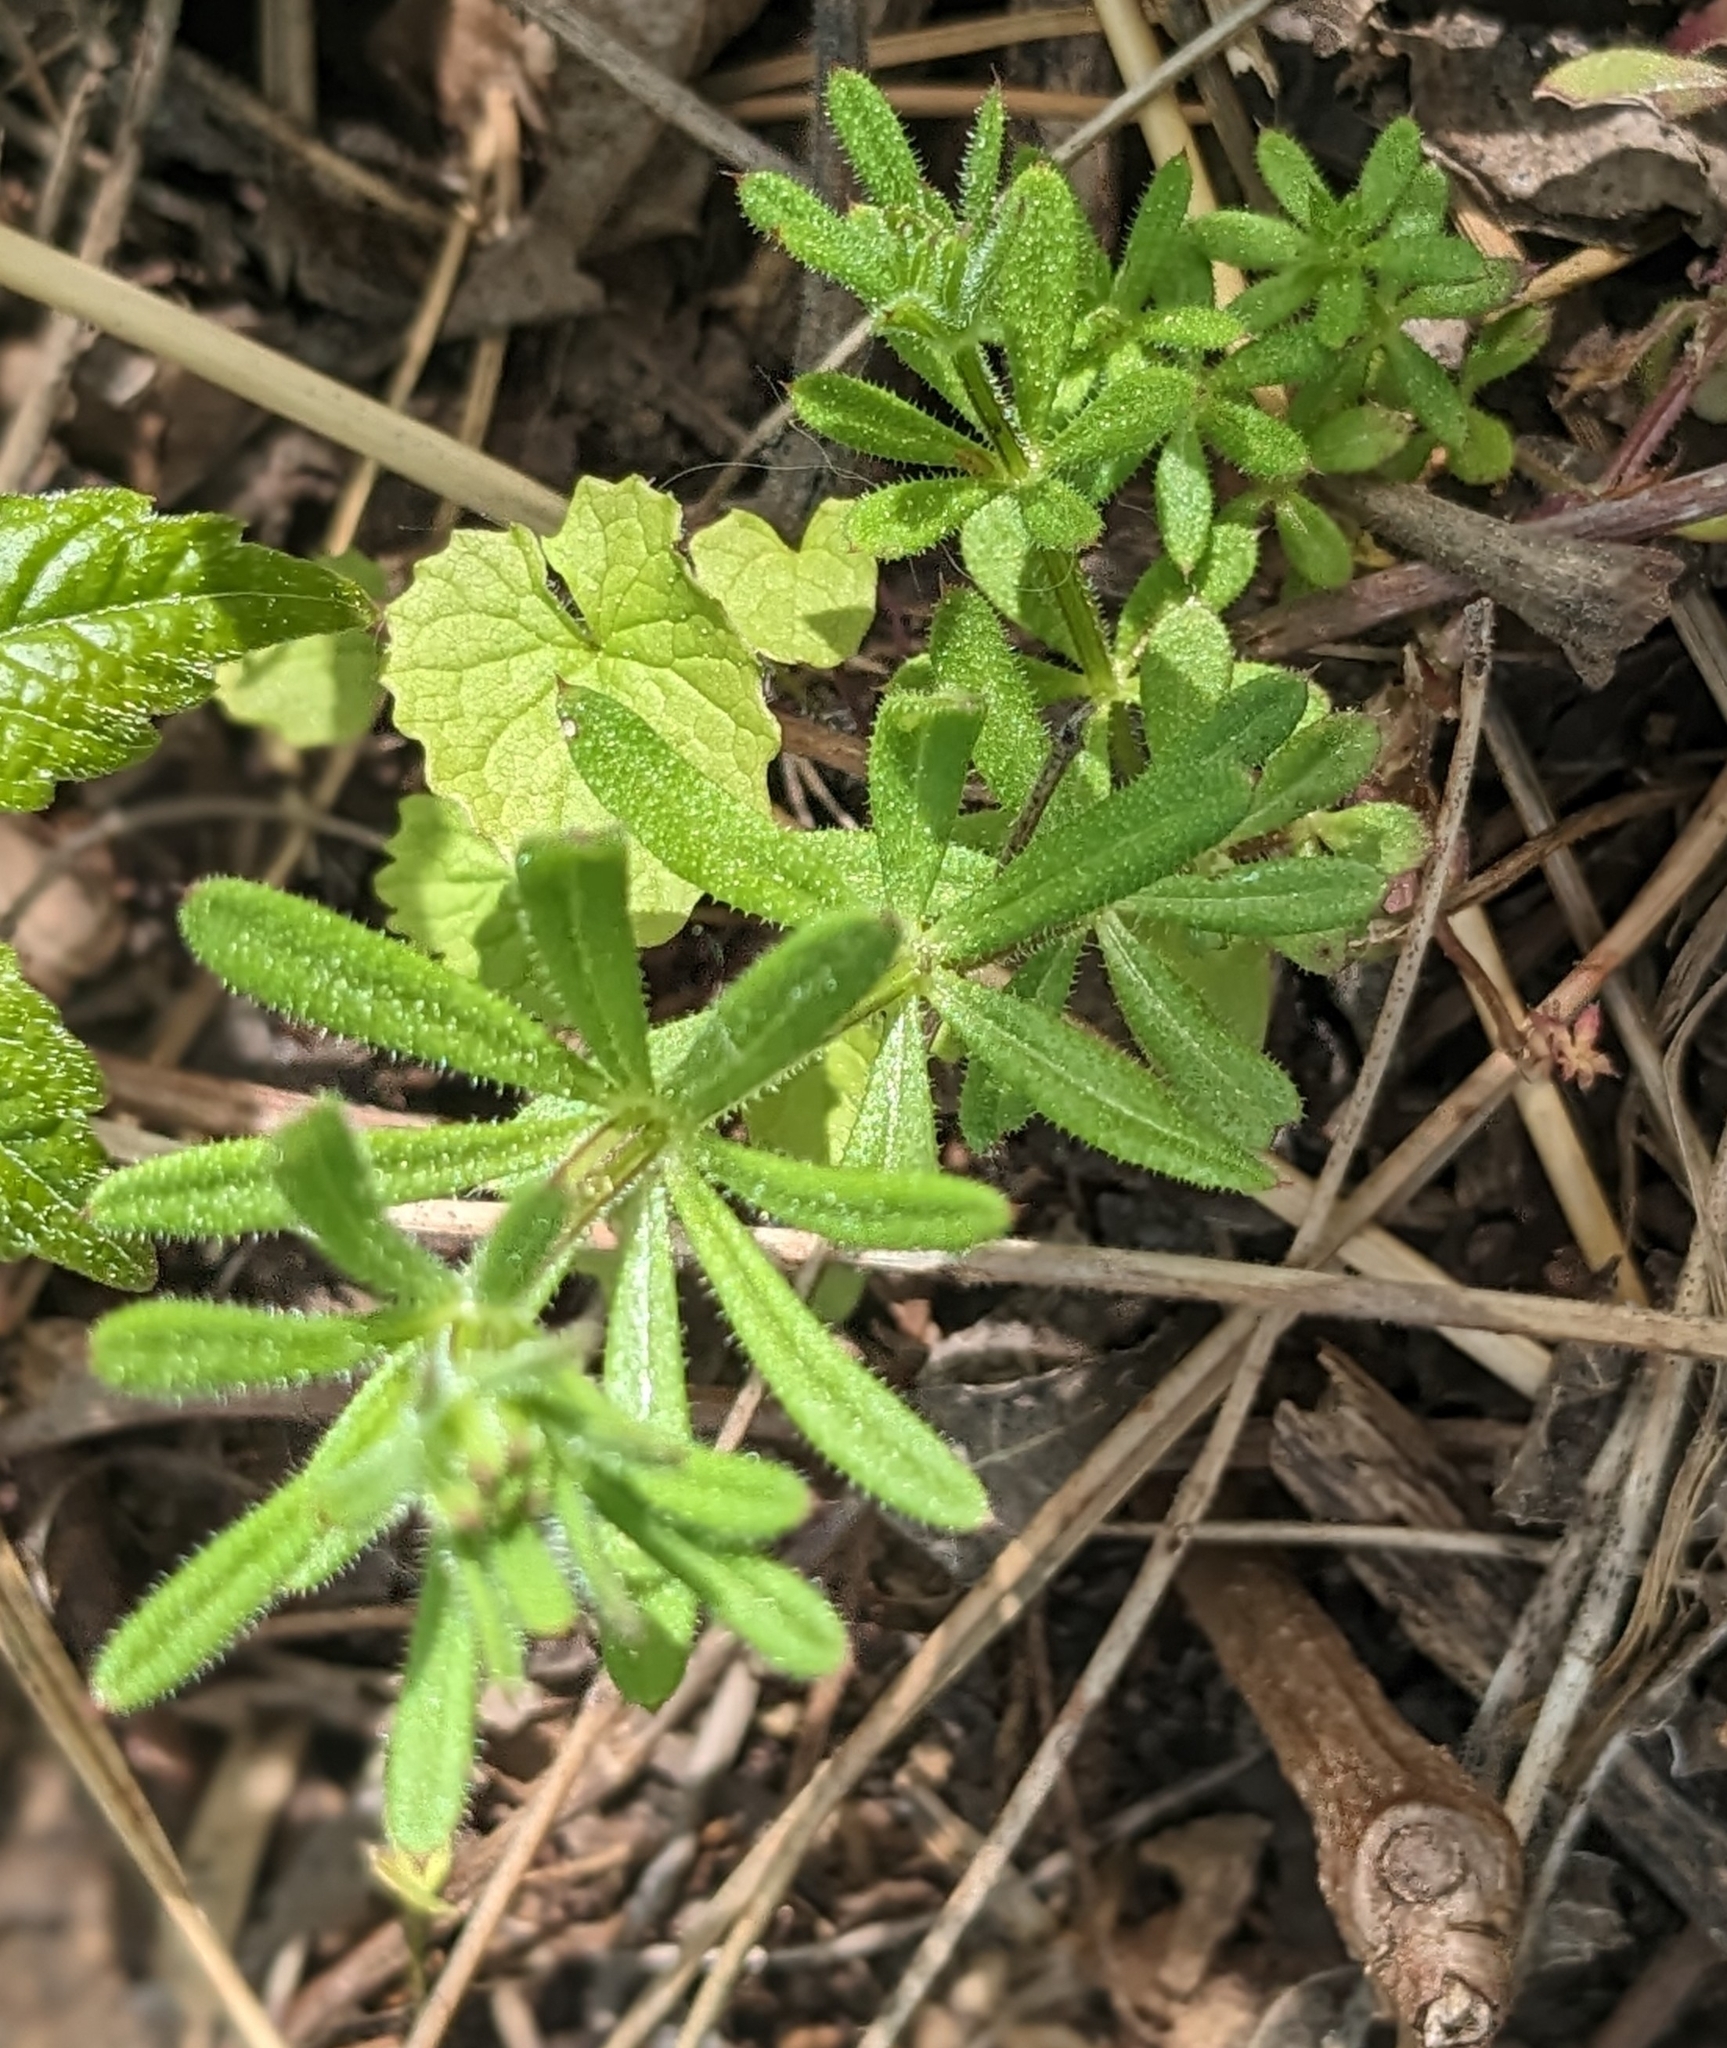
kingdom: Plantae
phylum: Tracheophyta
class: Magnoliopsida
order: Gentianales
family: Rubiaceae
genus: Galium
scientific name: Galium aparine
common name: Cleavers
